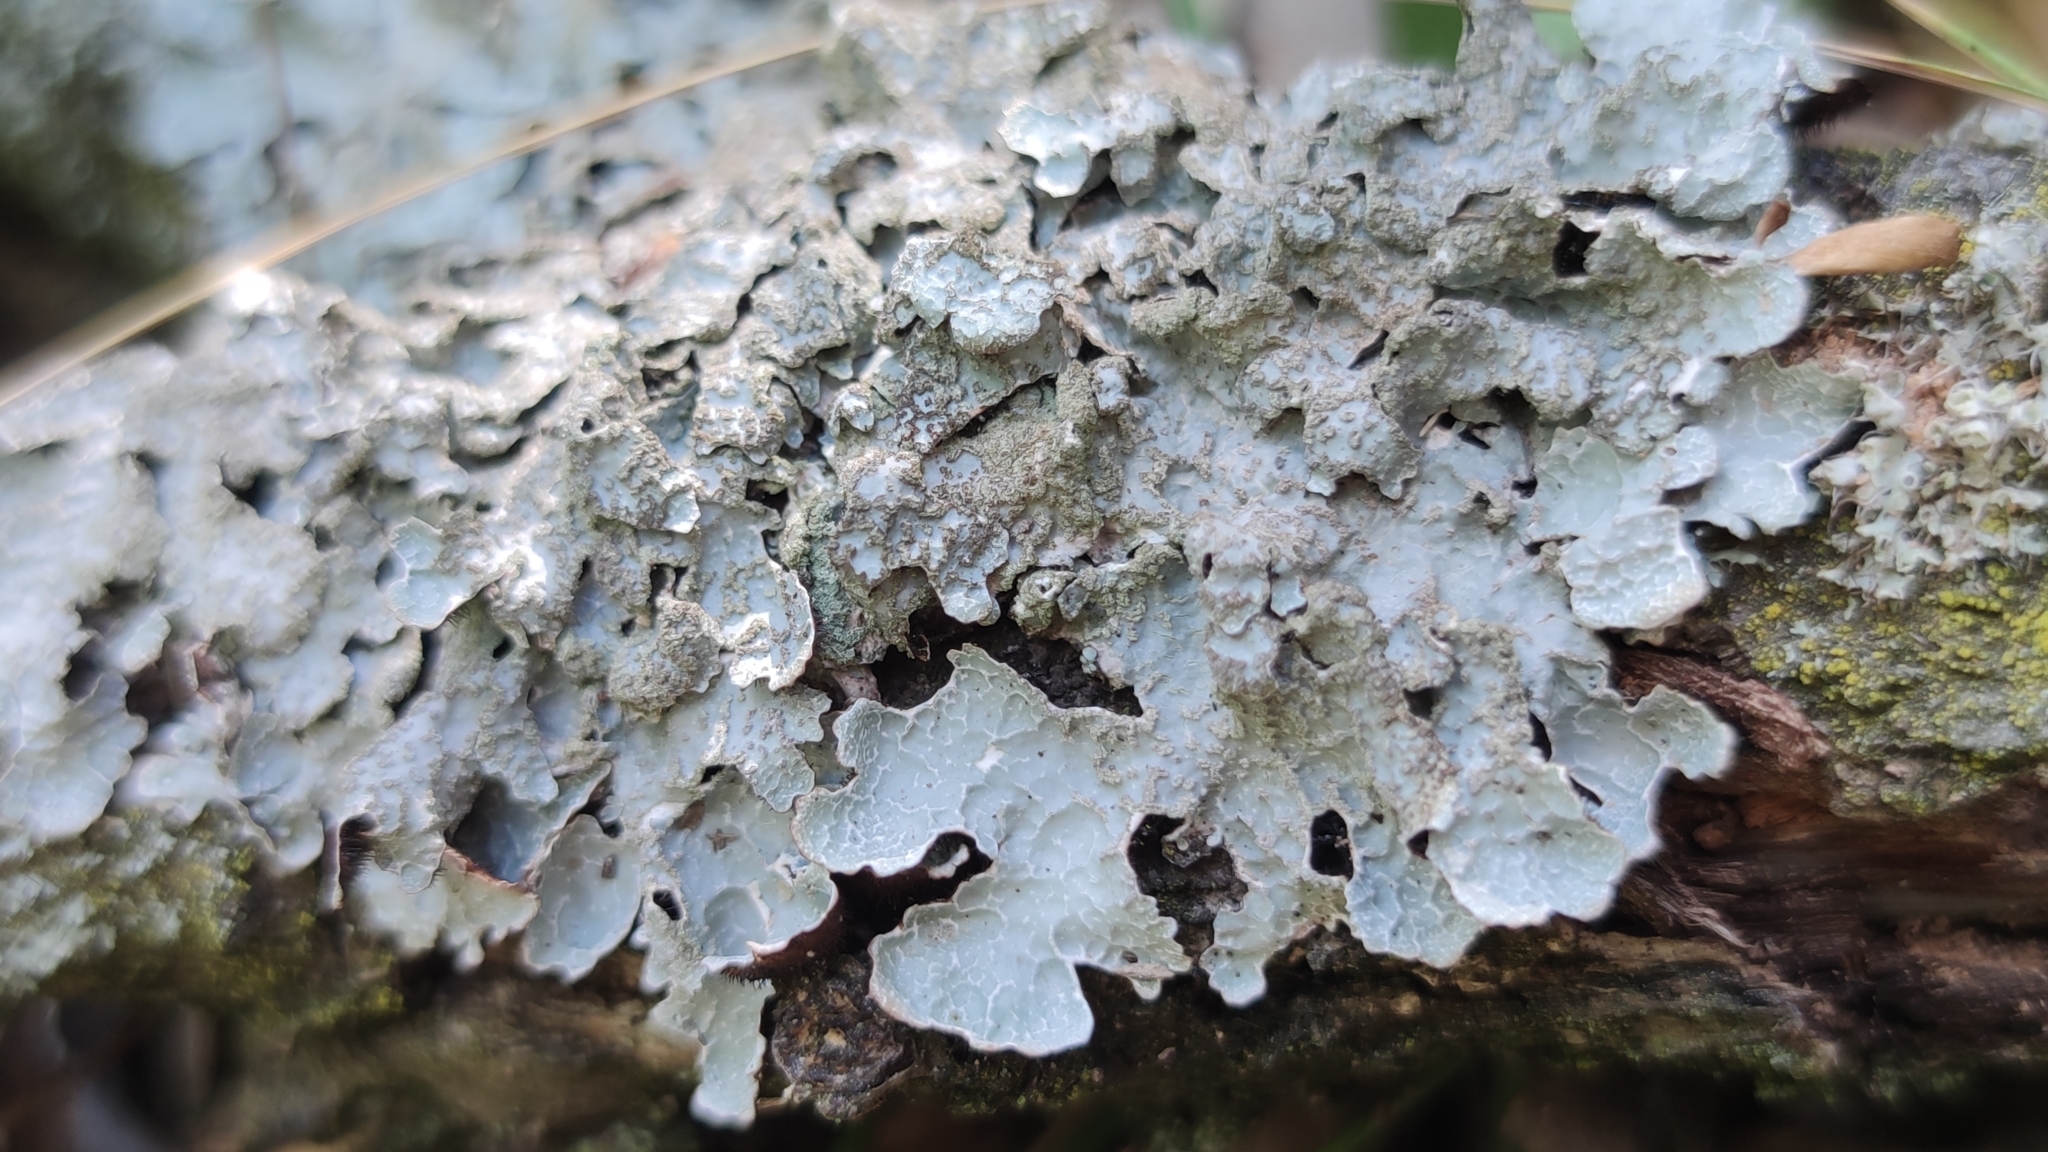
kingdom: Fungi
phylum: Ascomycota
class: Lecanoromycetes
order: Lecanorales
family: Parmeliaceae
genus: Parmelia
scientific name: Parmelia sulcata
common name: Netted shield lichen
